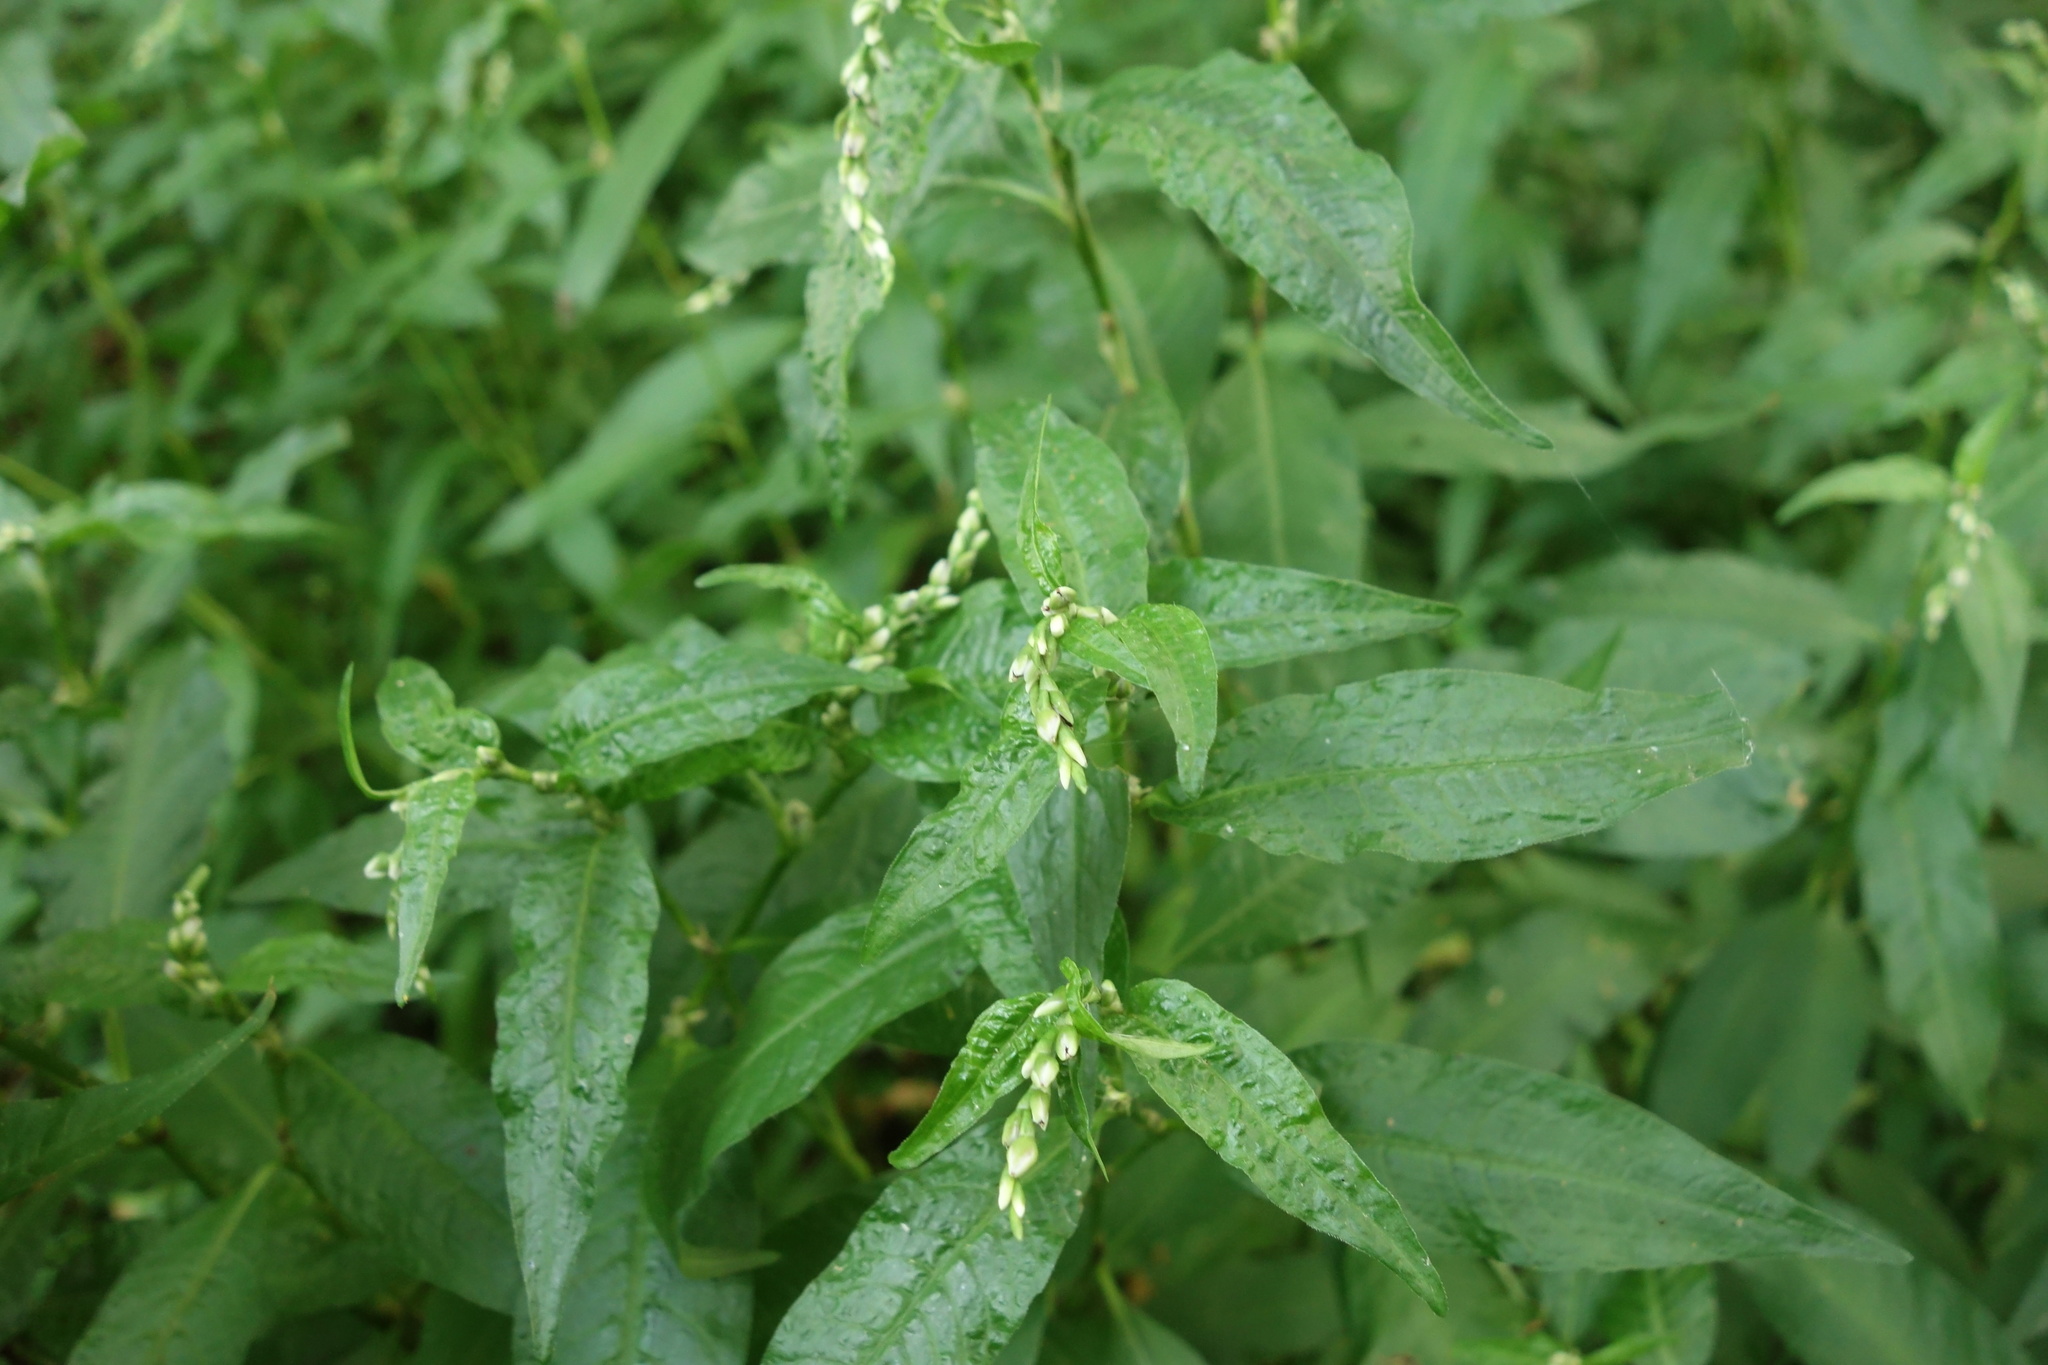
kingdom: Plantae
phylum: Tracheophyta
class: Magnoliopsida
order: Caryophyllales
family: Polygonaceae
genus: Persicaria
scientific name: Persicaria hydropiper
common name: Water-pepper
